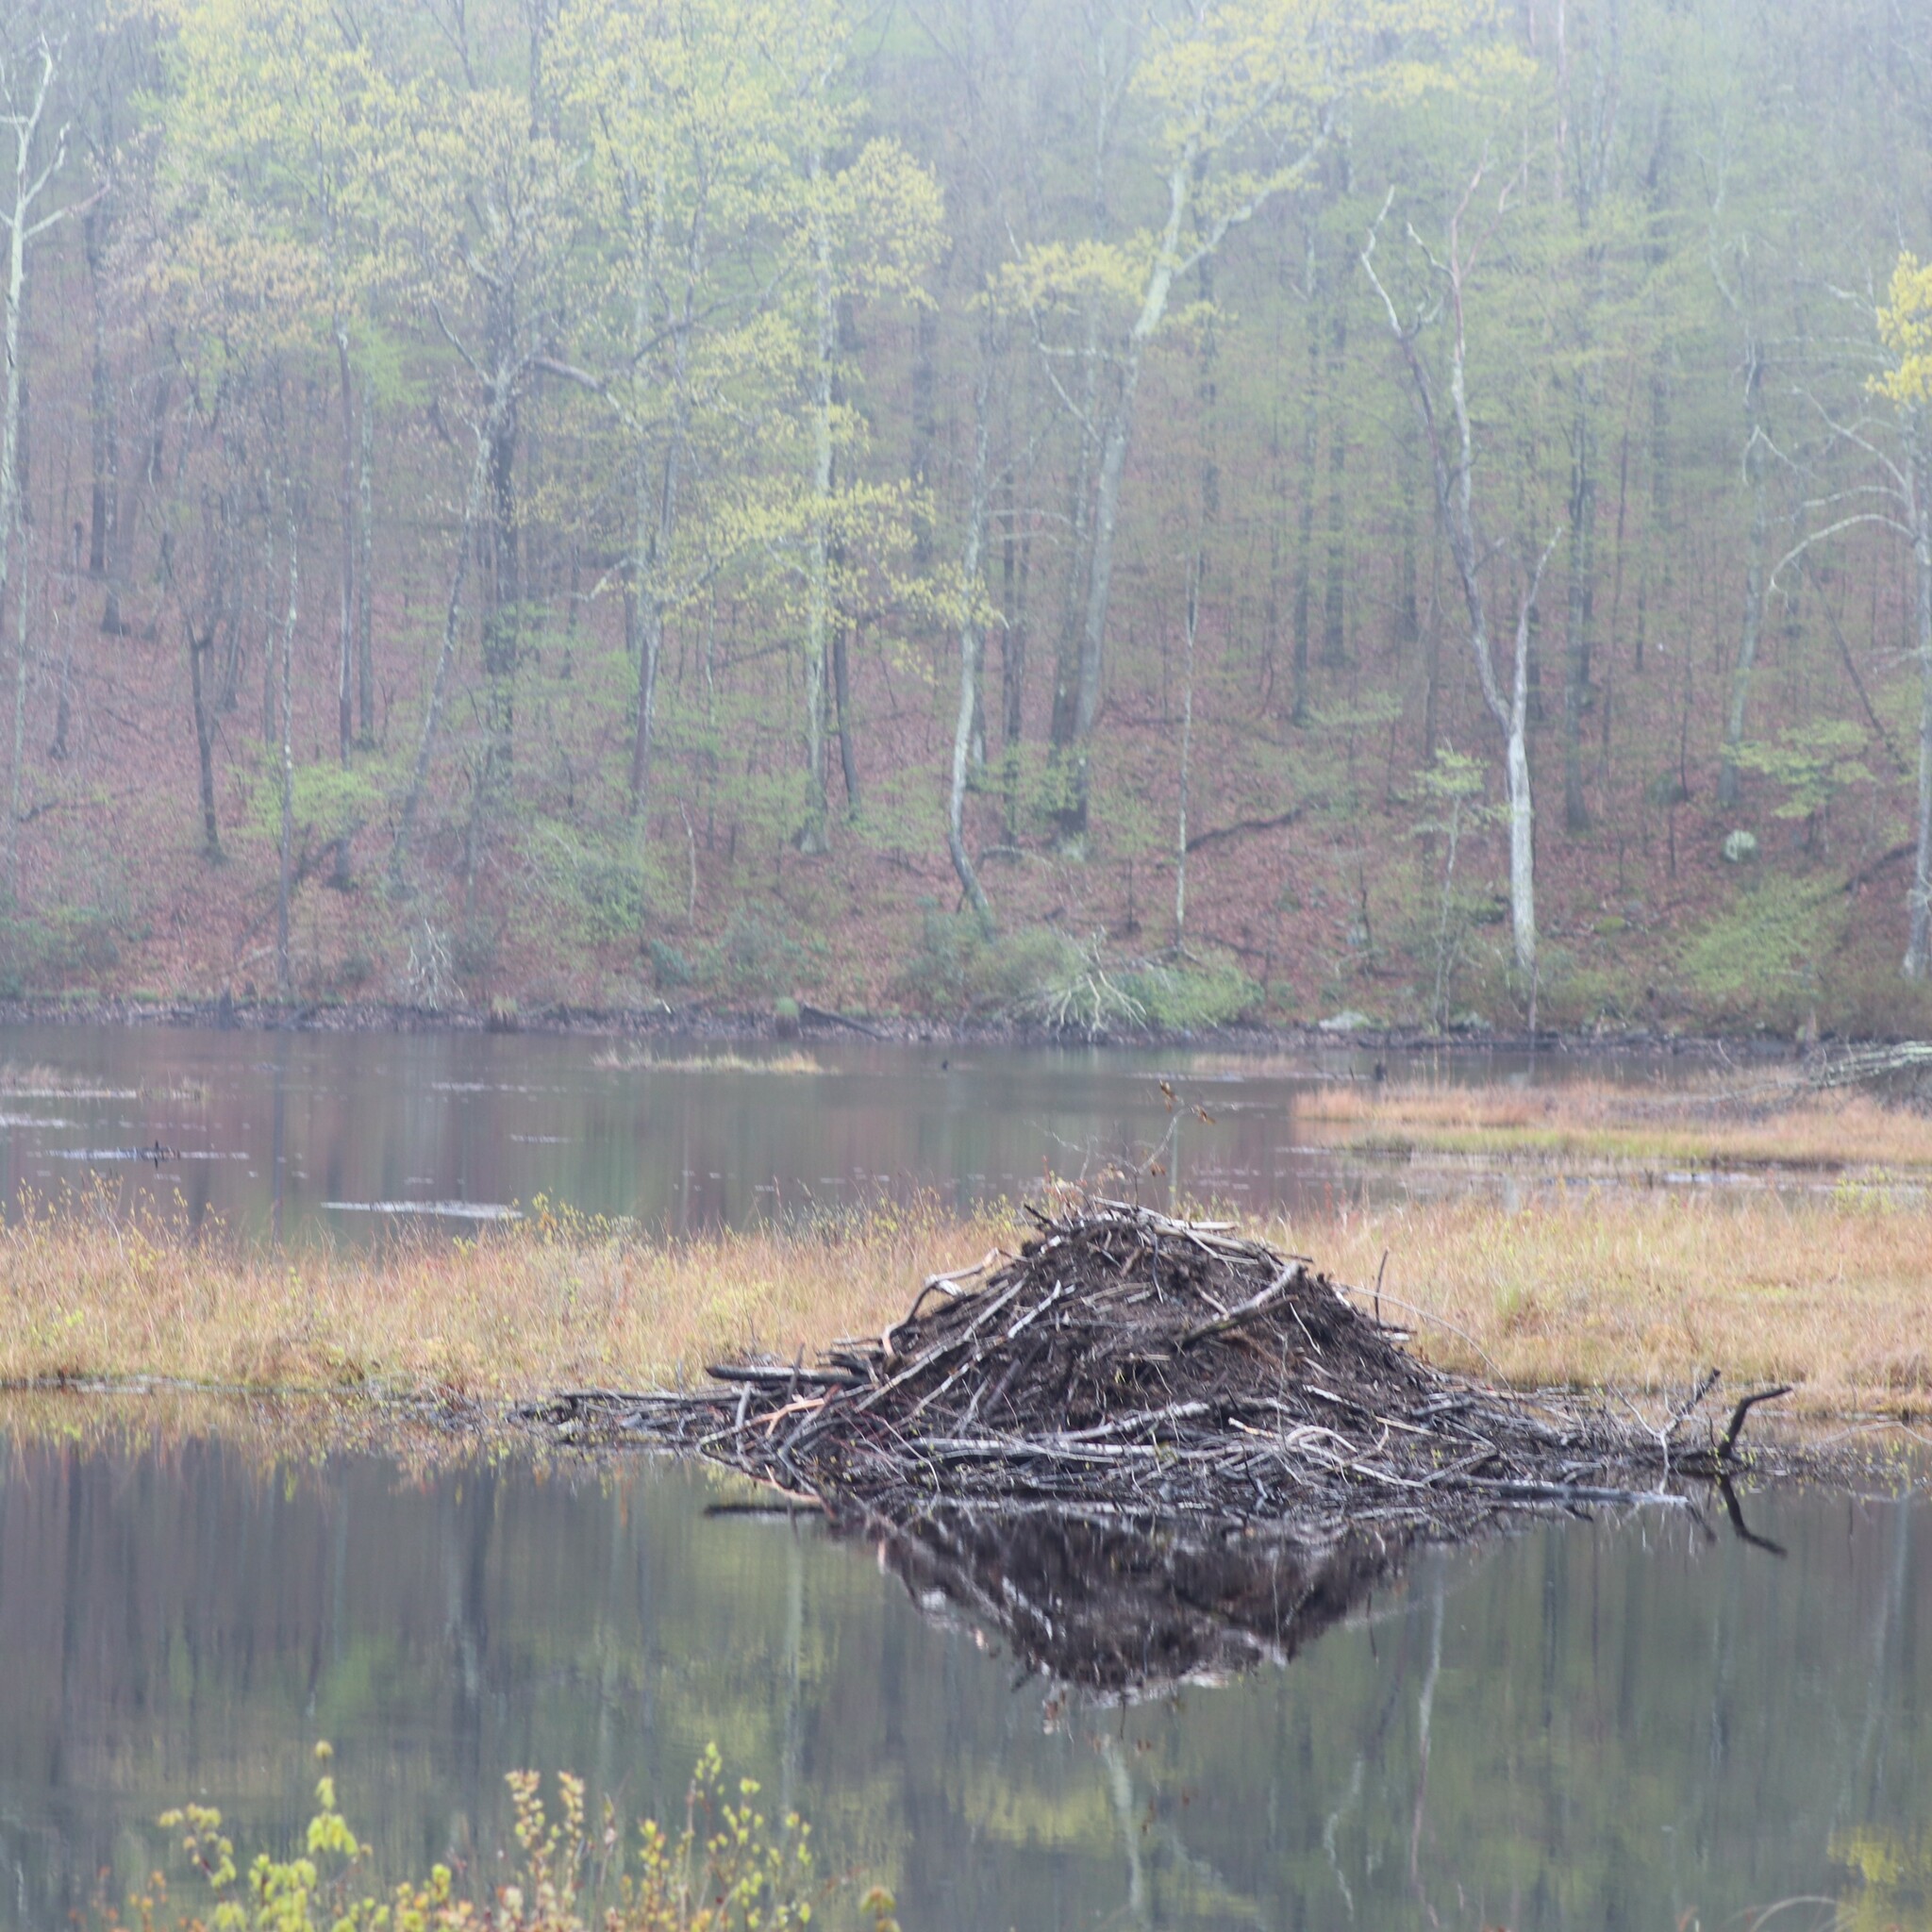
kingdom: Animalia
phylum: Chordata
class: Mammalia
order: Rodentia
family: Castoridae
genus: Castor
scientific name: Castor canadensis
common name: American beaver
